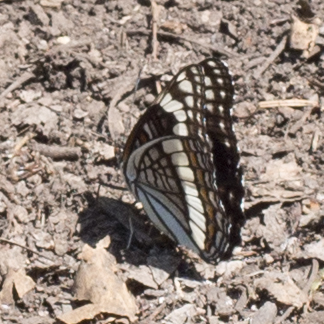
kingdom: Animalia
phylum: Arthropoda
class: Insecta
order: Lepidoptera
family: Nymphalidae
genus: Limenitis
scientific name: Limenitis weidemeyerii
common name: Weidemeyer's admiral
